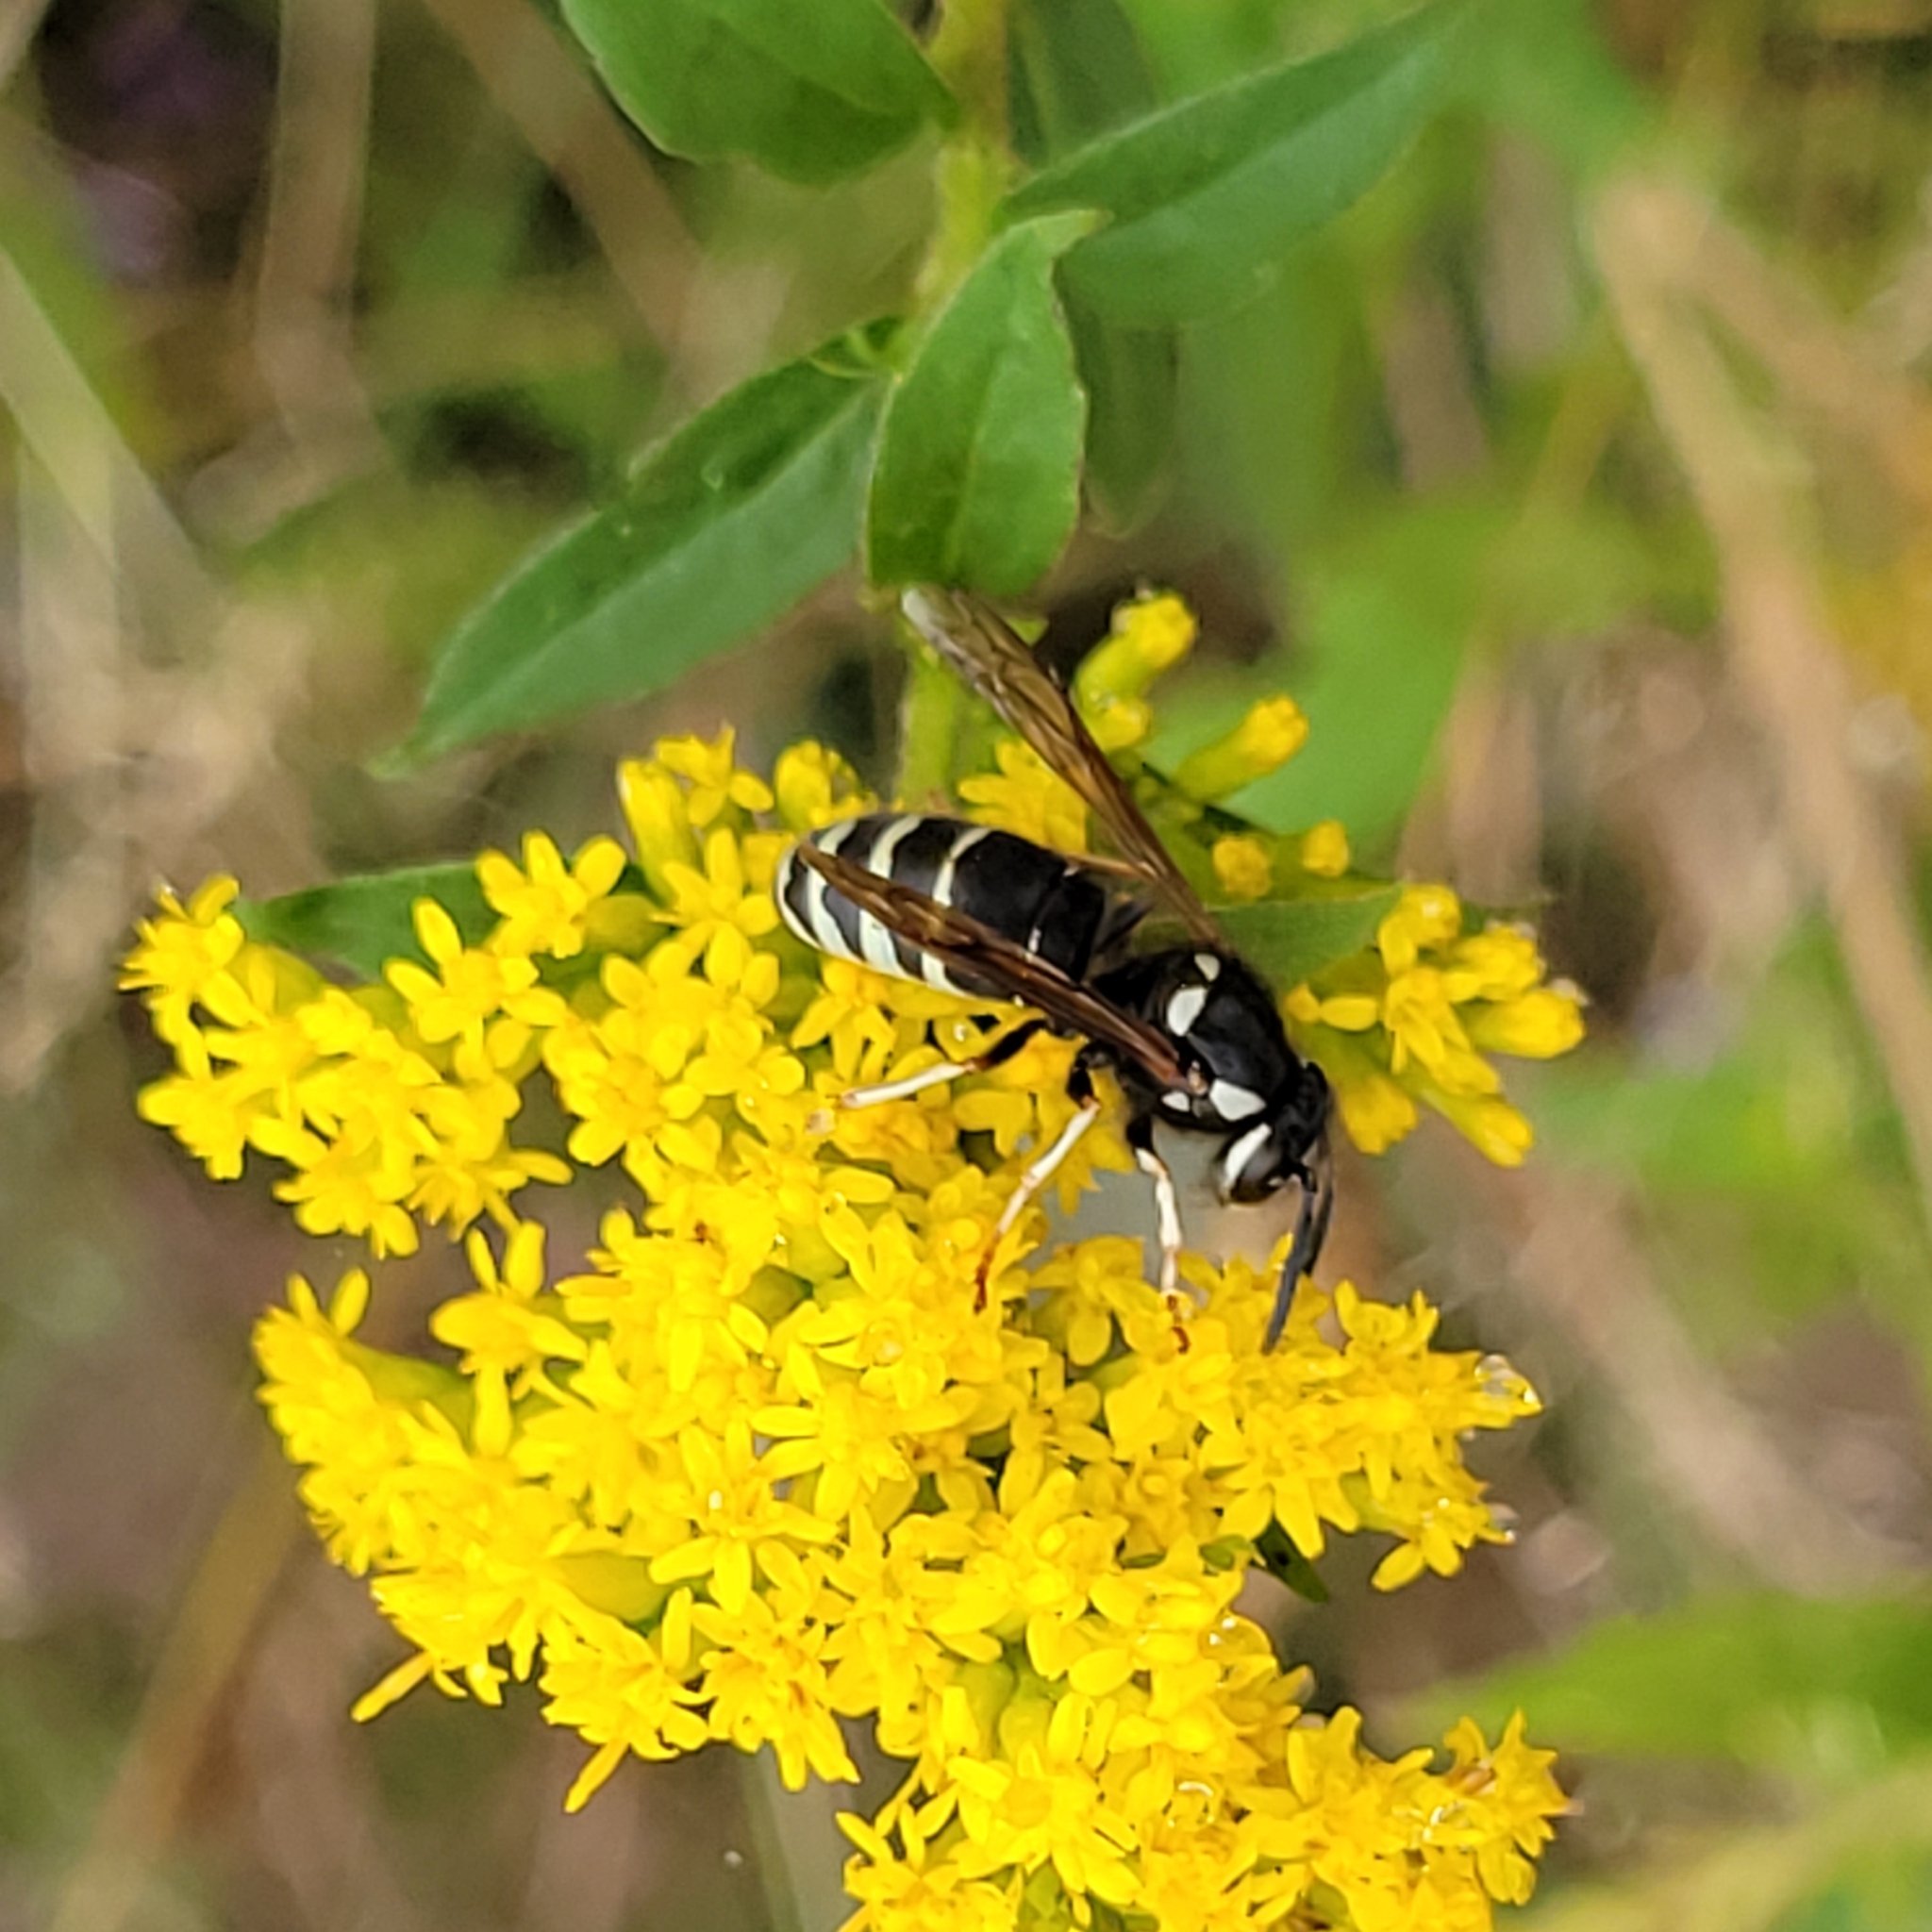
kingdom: Animalia
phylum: Arthropoda
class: Insecta
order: Hymenoptera
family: Vespidae
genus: Vespula
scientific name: Vespula consobrina
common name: Blackjacket
